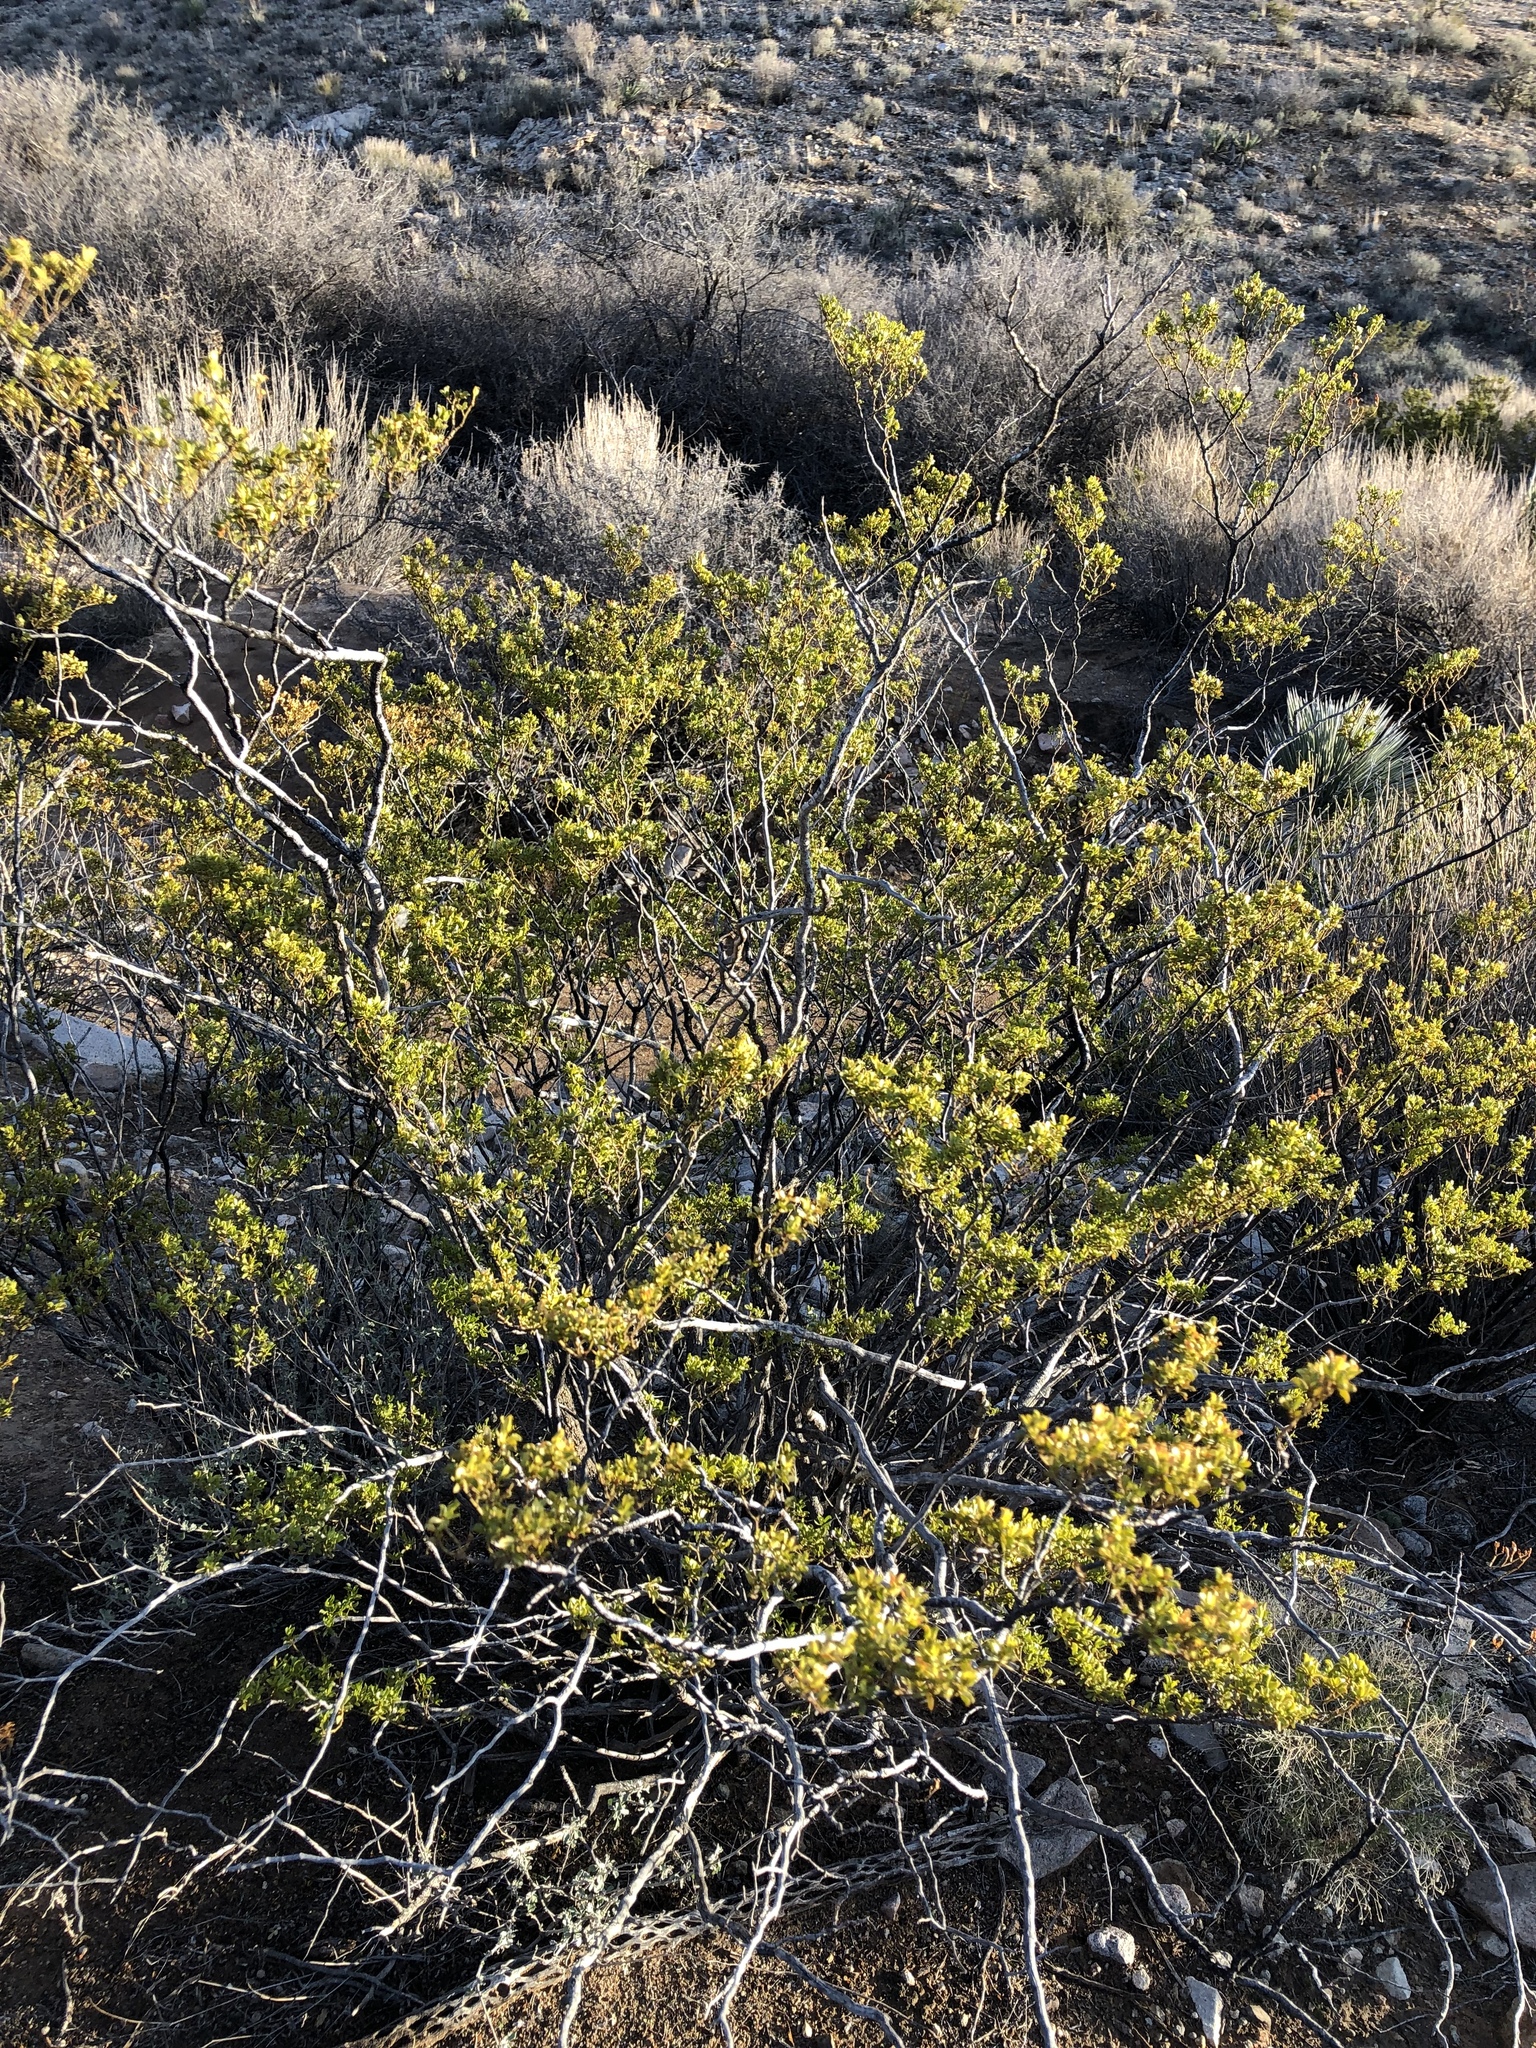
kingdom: Plantae
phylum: Tracheophyta
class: Magnoliopsida
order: Zygophyllales
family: Zygophyllaceae
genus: Larrea
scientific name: Larrea tridentata
